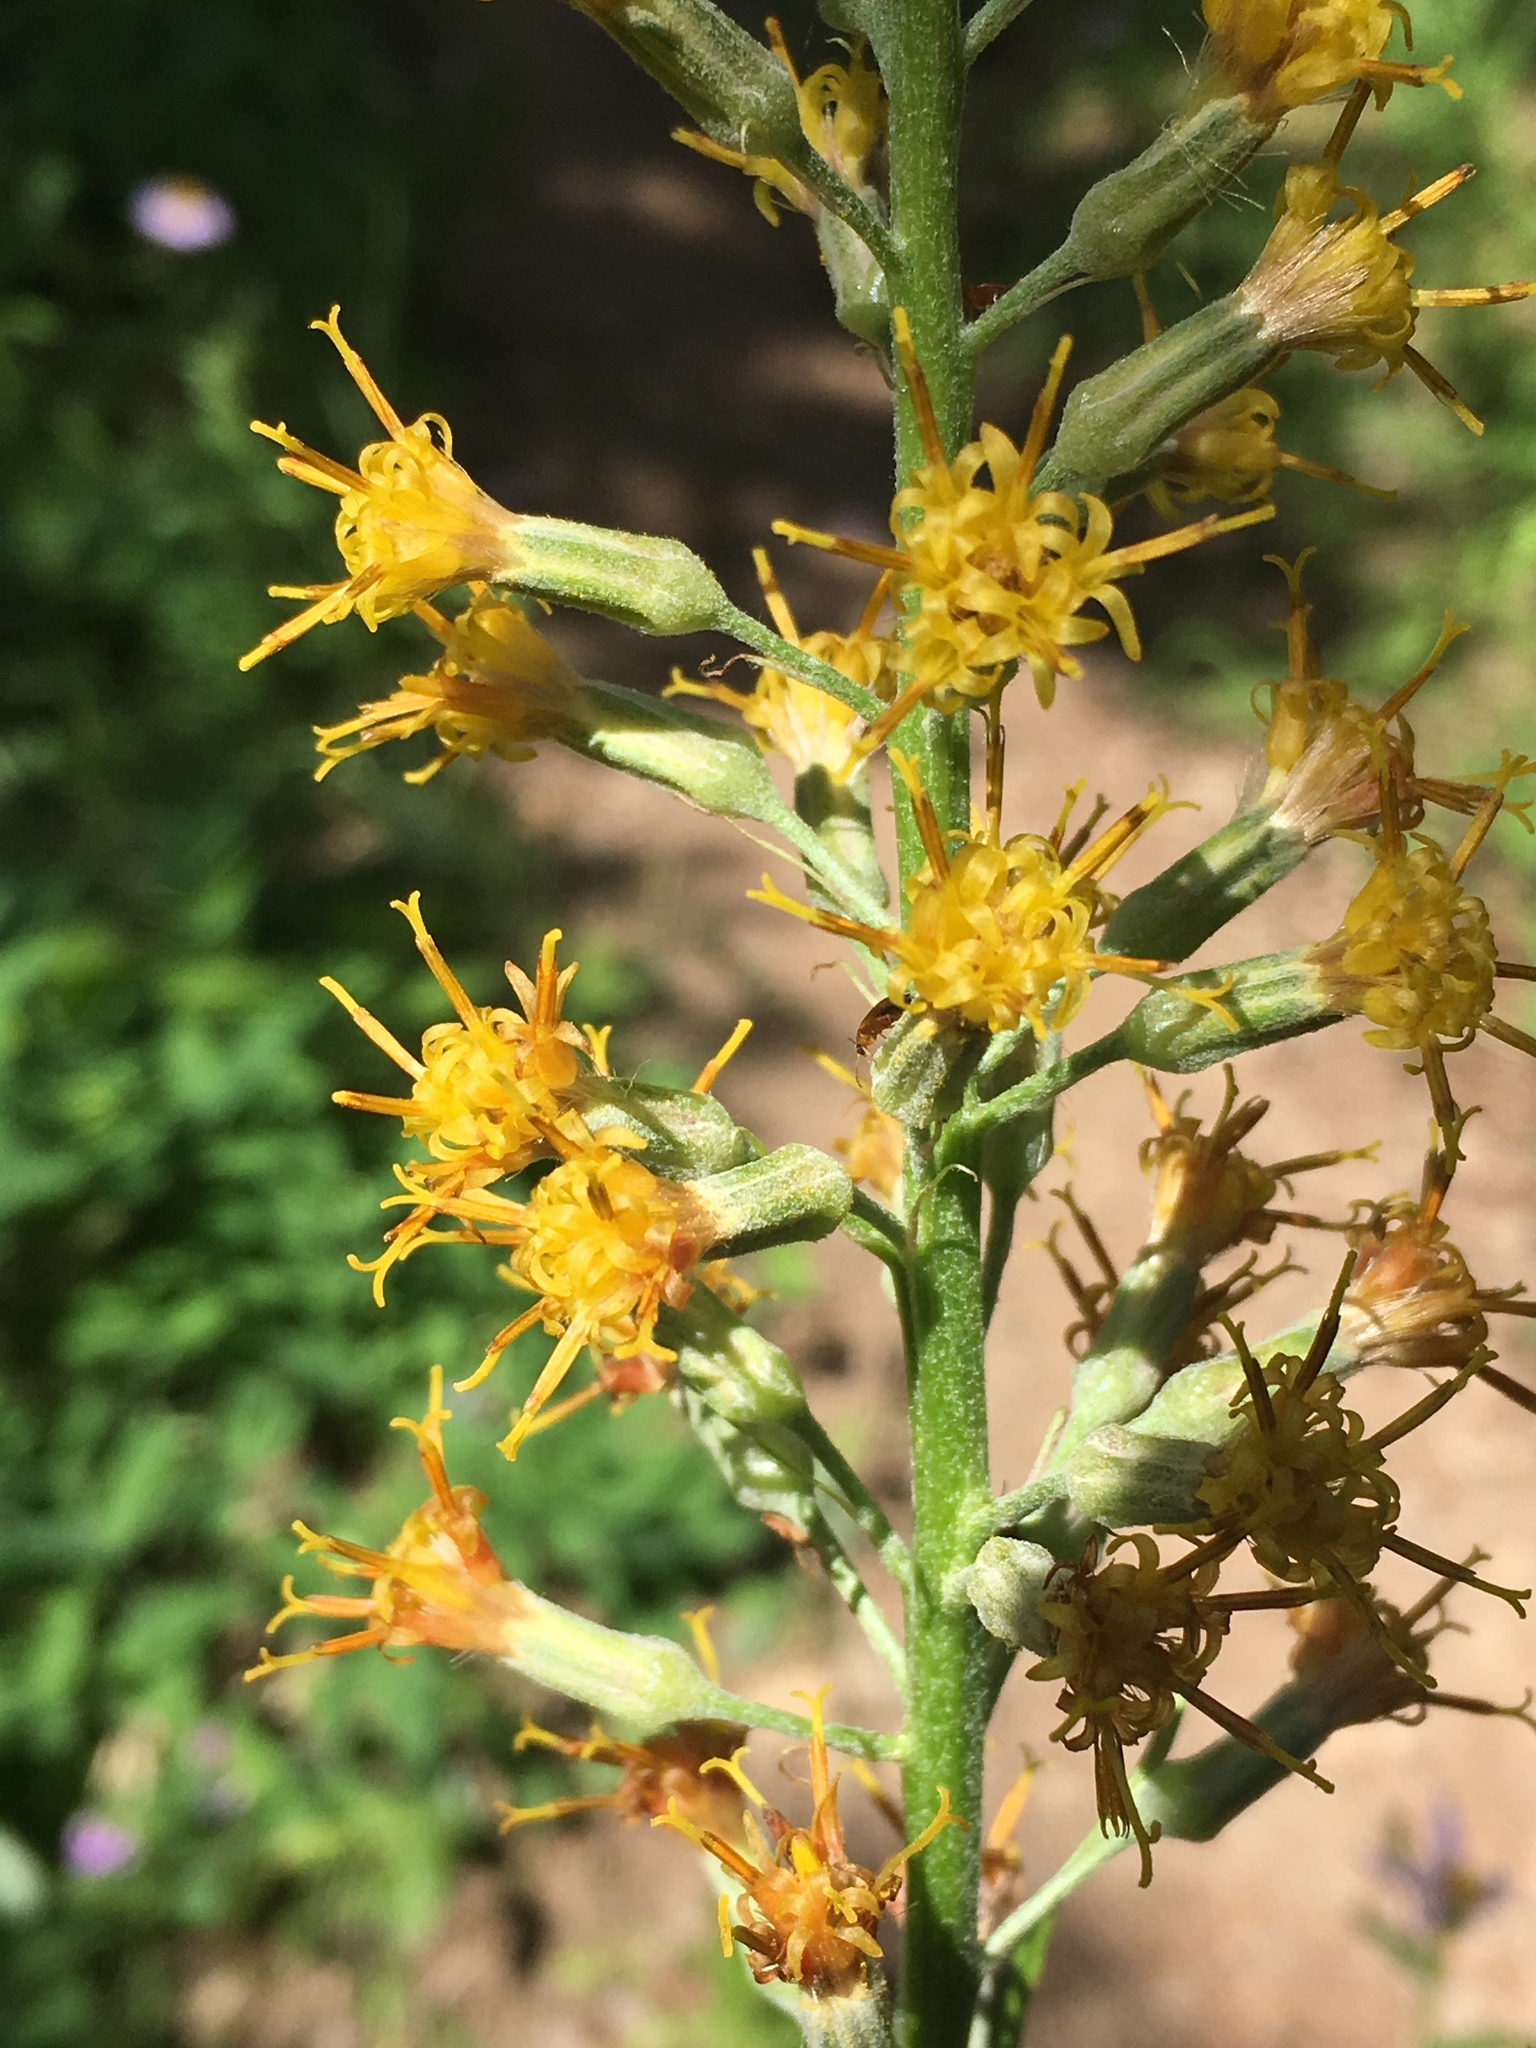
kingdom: Plantae
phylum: Tracheophyta
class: Magnoliopsida
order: Asterales
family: Asteraceae
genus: Rainiera
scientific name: Rainiera stricta
